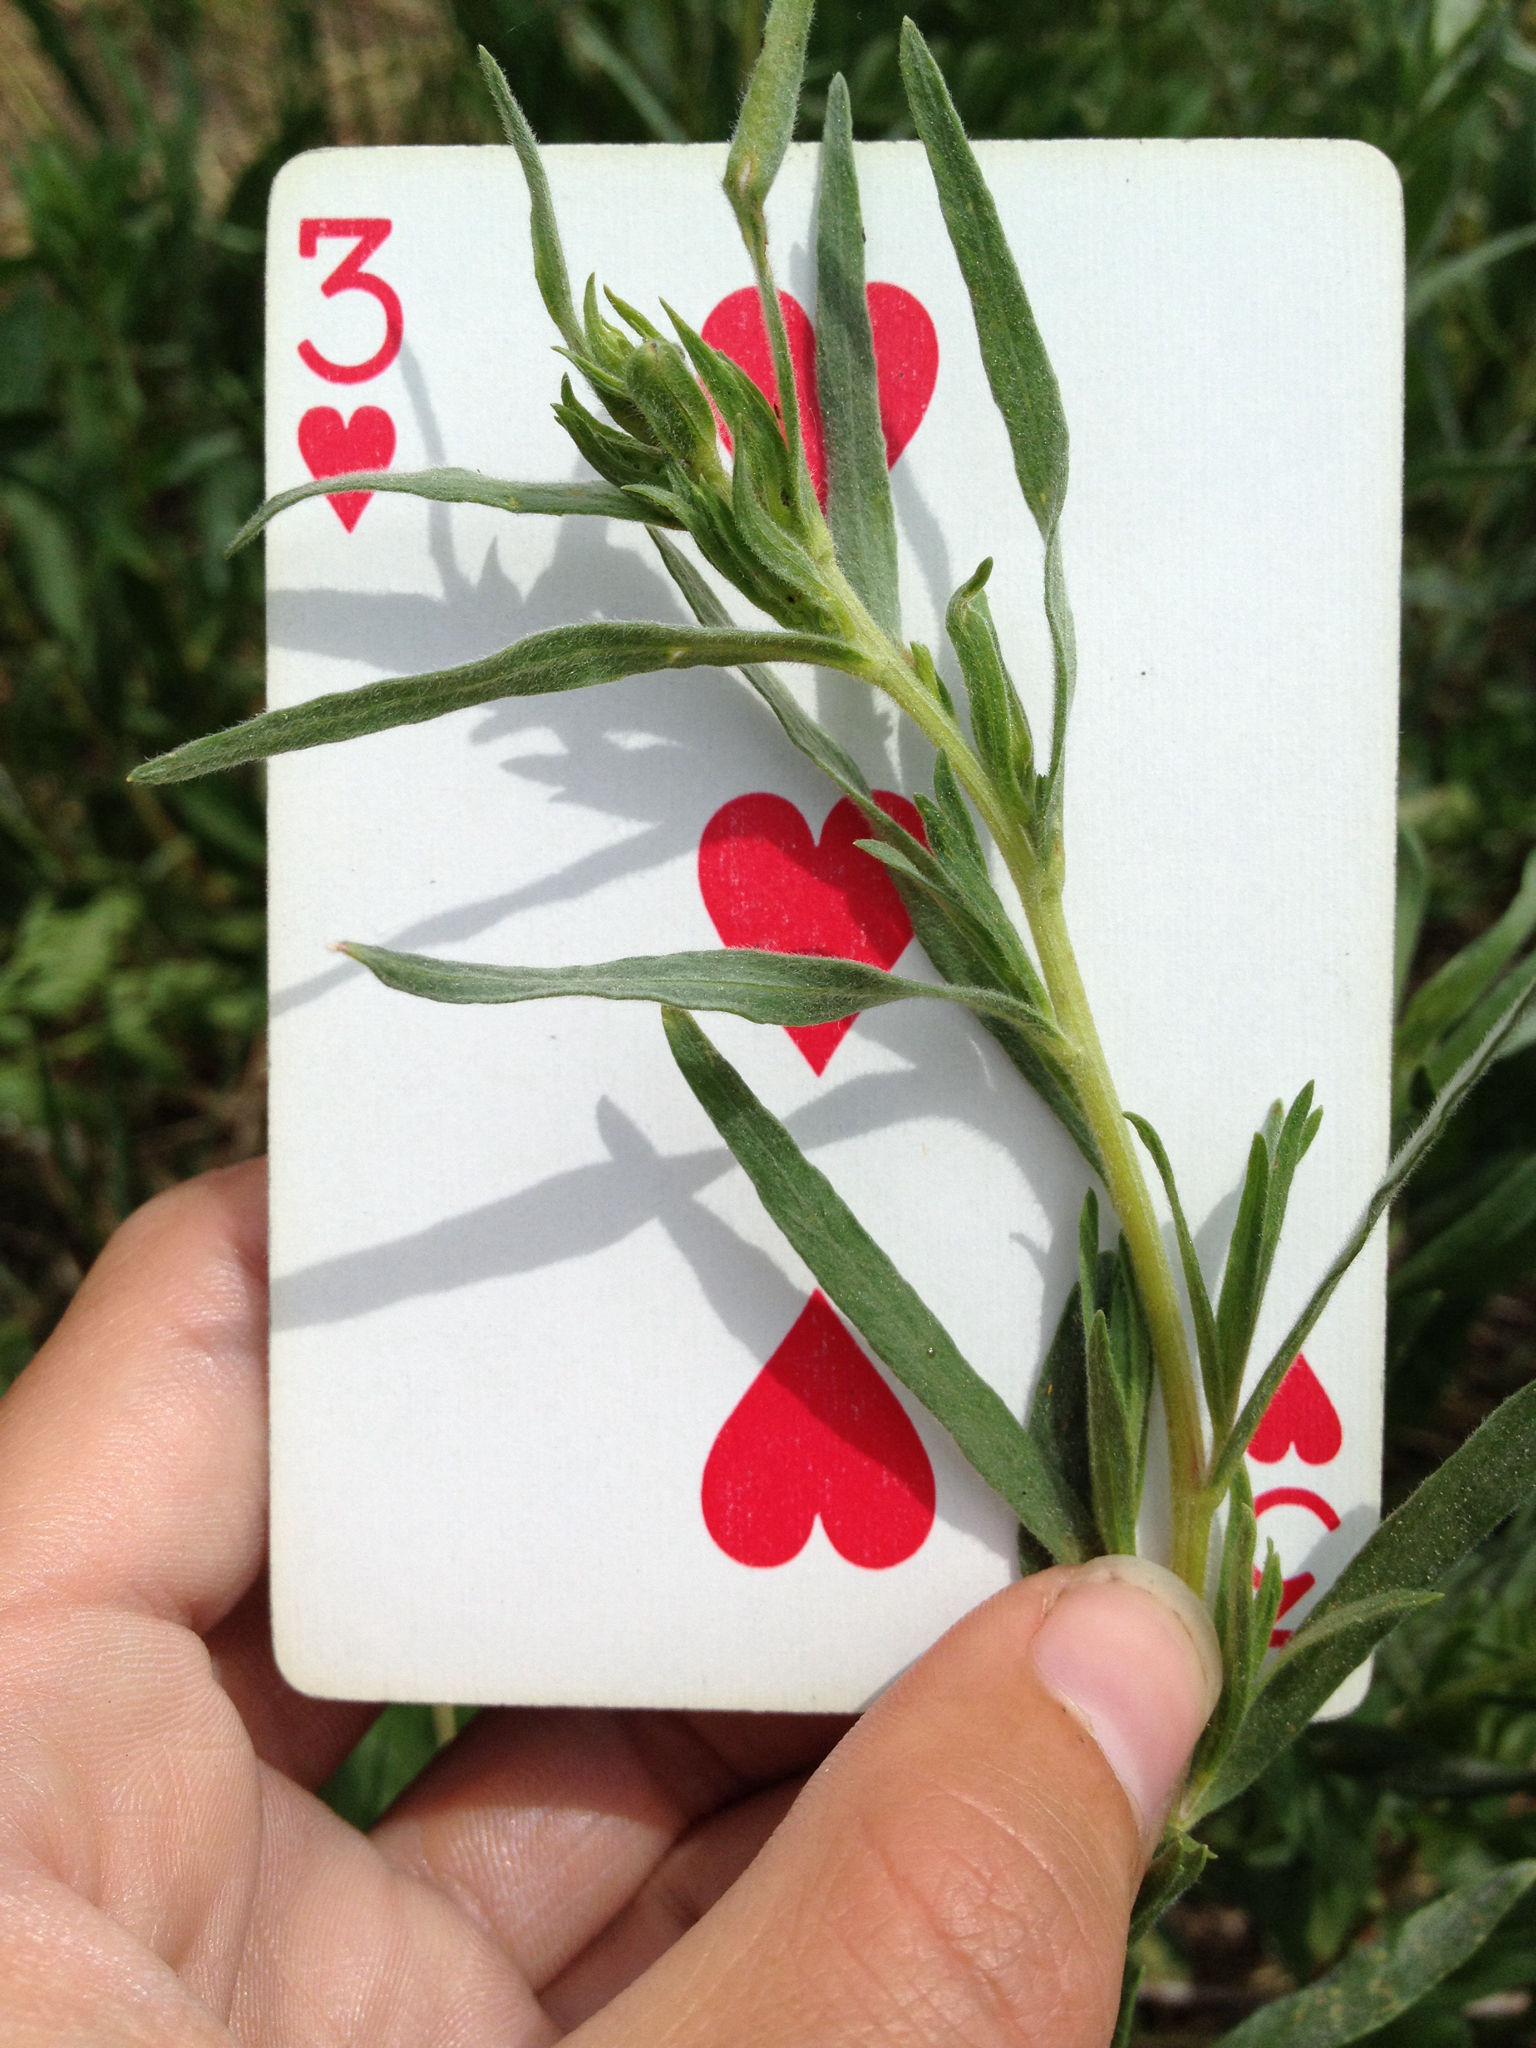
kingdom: Plantae
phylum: Tracheophyta
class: Magnoliopsida
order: Asterales
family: Asteraceae
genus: Artemisia
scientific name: Artemisia dracunculus
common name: Tarragon
